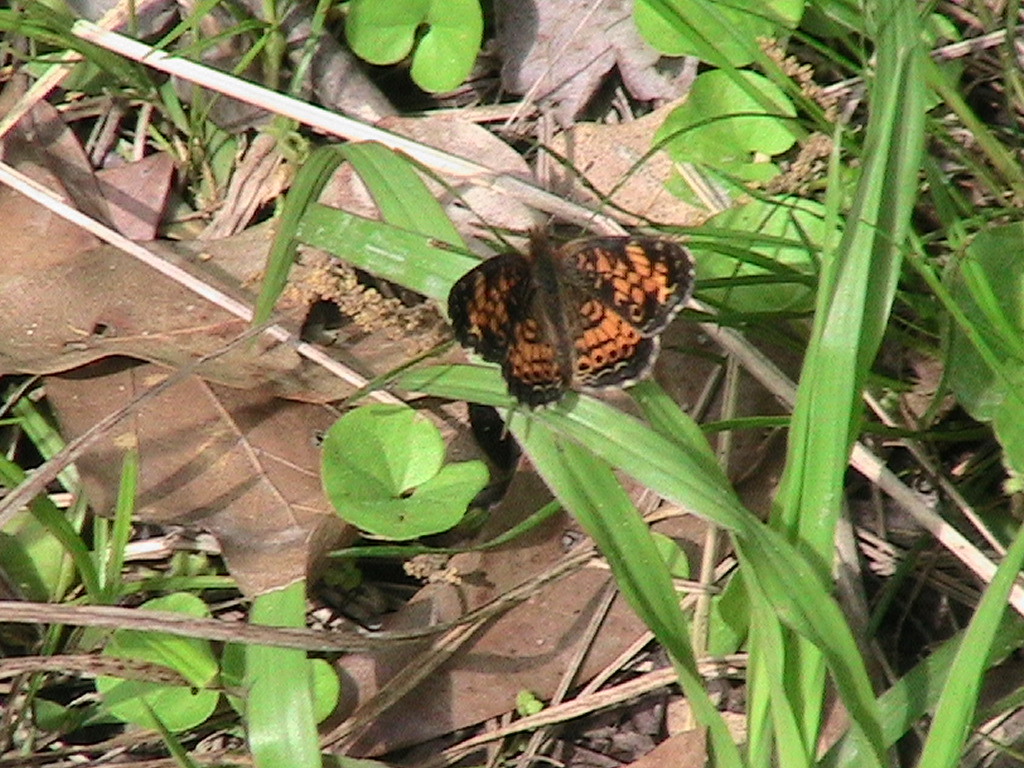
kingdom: Animalia
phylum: Arthropoda
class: Insecta
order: Lepidoptera
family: Nymphalidae
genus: Phyciodes
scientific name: Phyciodes tharos
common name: Pearl crescent
